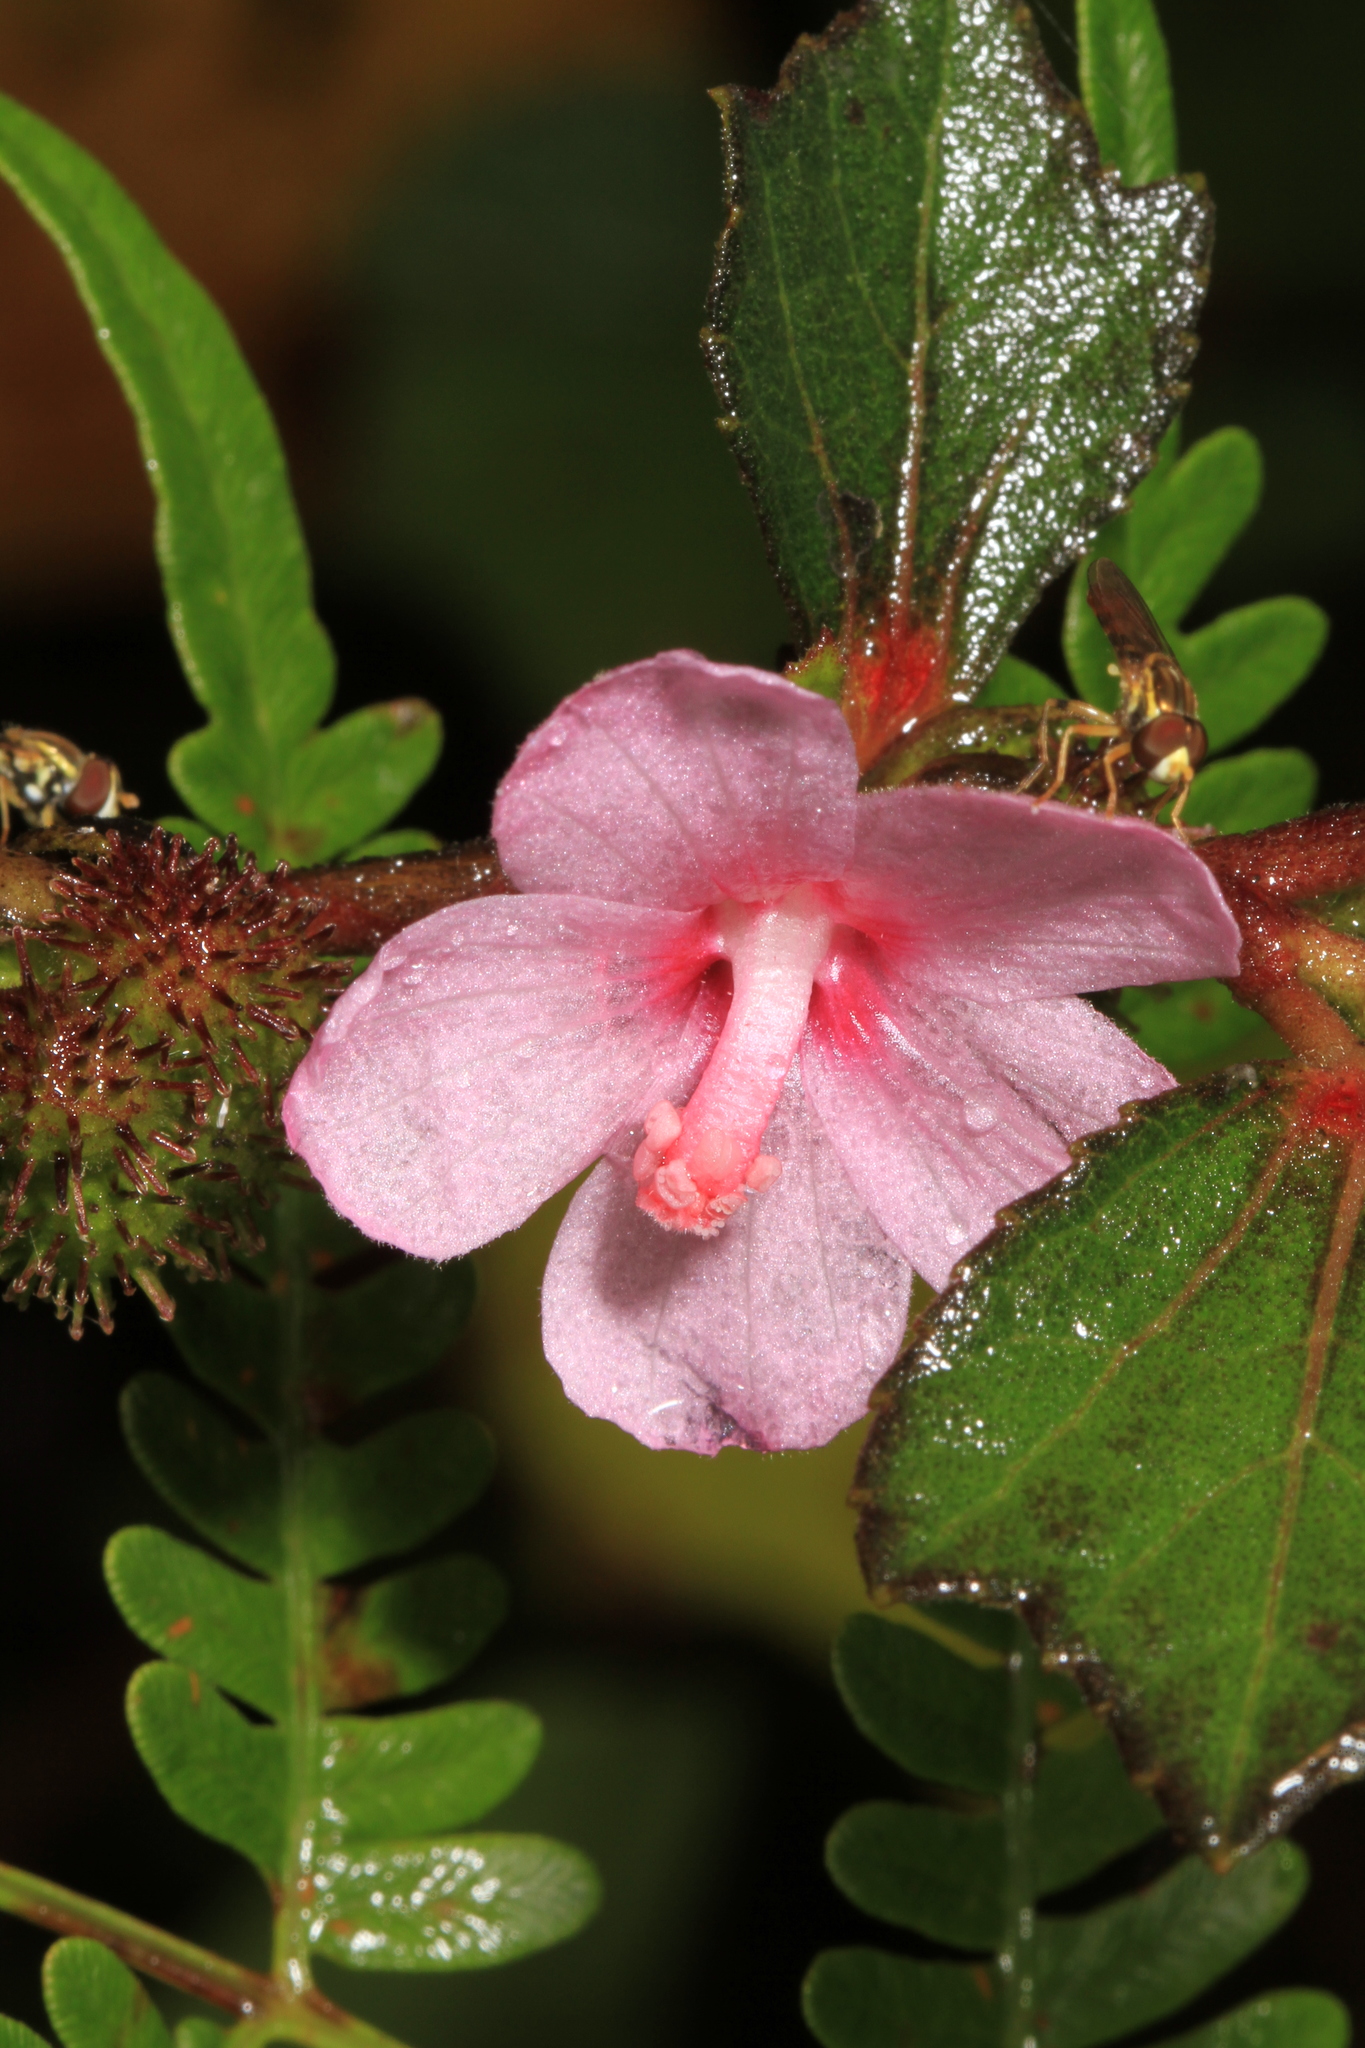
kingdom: Plantae
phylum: Tracheophyta
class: Magnoliopsida
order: Malvales
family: Malvaceae
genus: Urena
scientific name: Urena lobata
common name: Caesarweed
